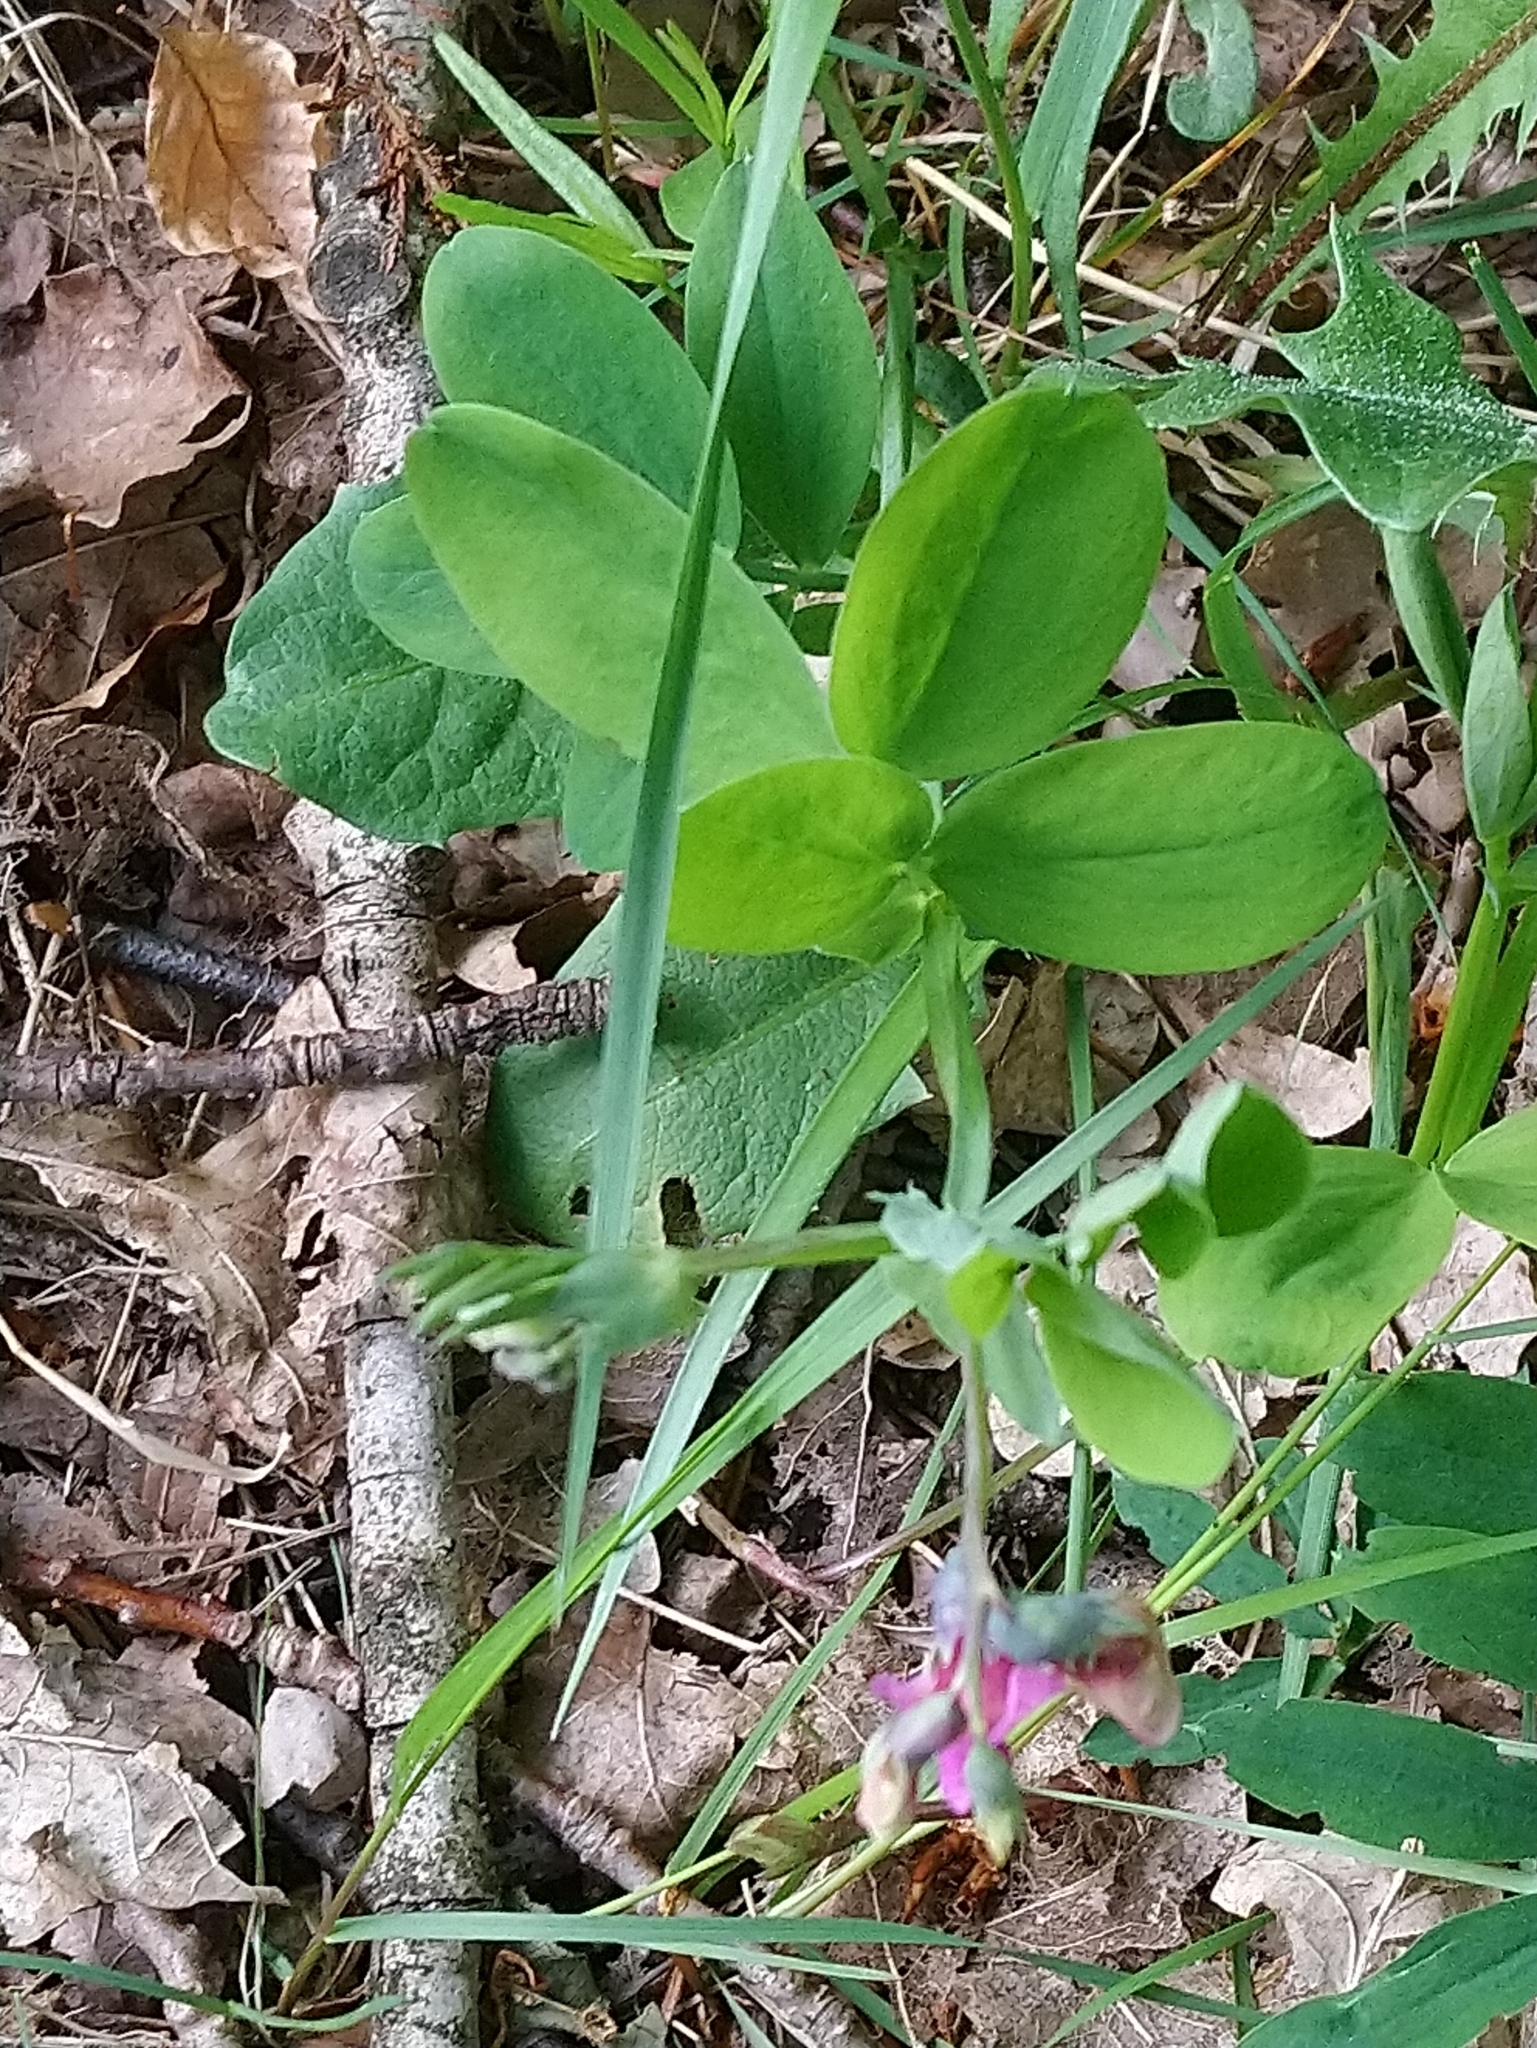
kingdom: Plantae
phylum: Tracheophyta
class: Magnoliopsida
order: Fabales
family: Fabaceae
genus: Lathyrus
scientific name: Lathyrus linifolius
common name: Bitter-vetch
